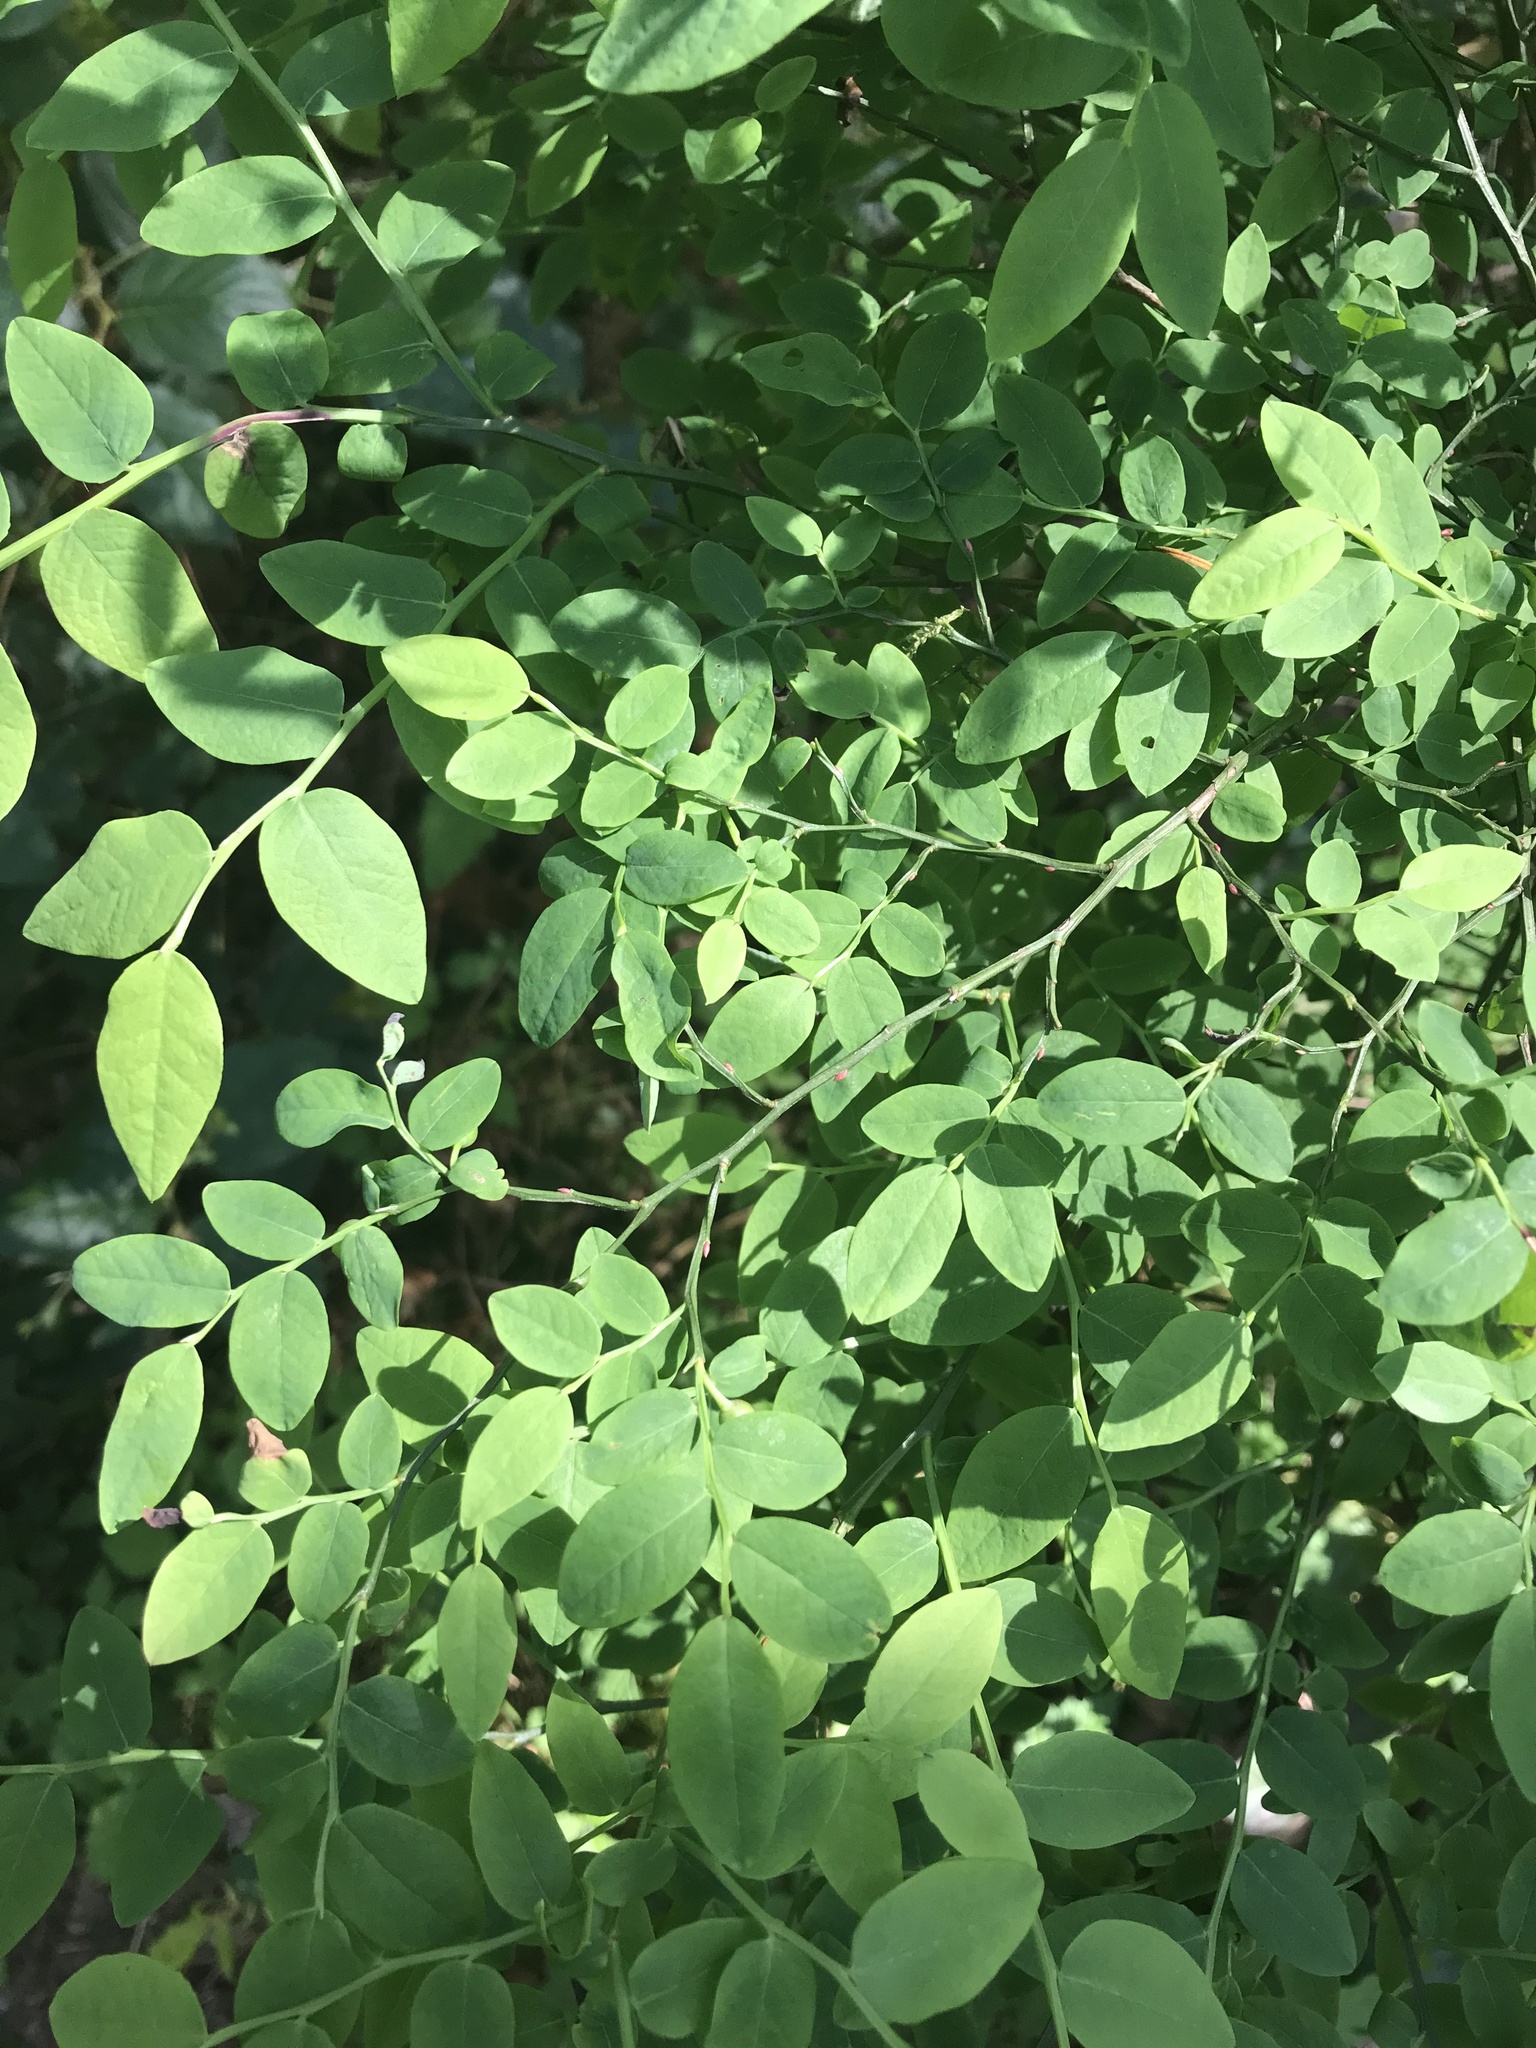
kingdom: Plantae
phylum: Tracheophyta
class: Magnoliopsida
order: Ericales
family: Ericaceae
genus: Vaccinium
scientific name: Vaccinium parvifolium
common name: Red-huckleberry
